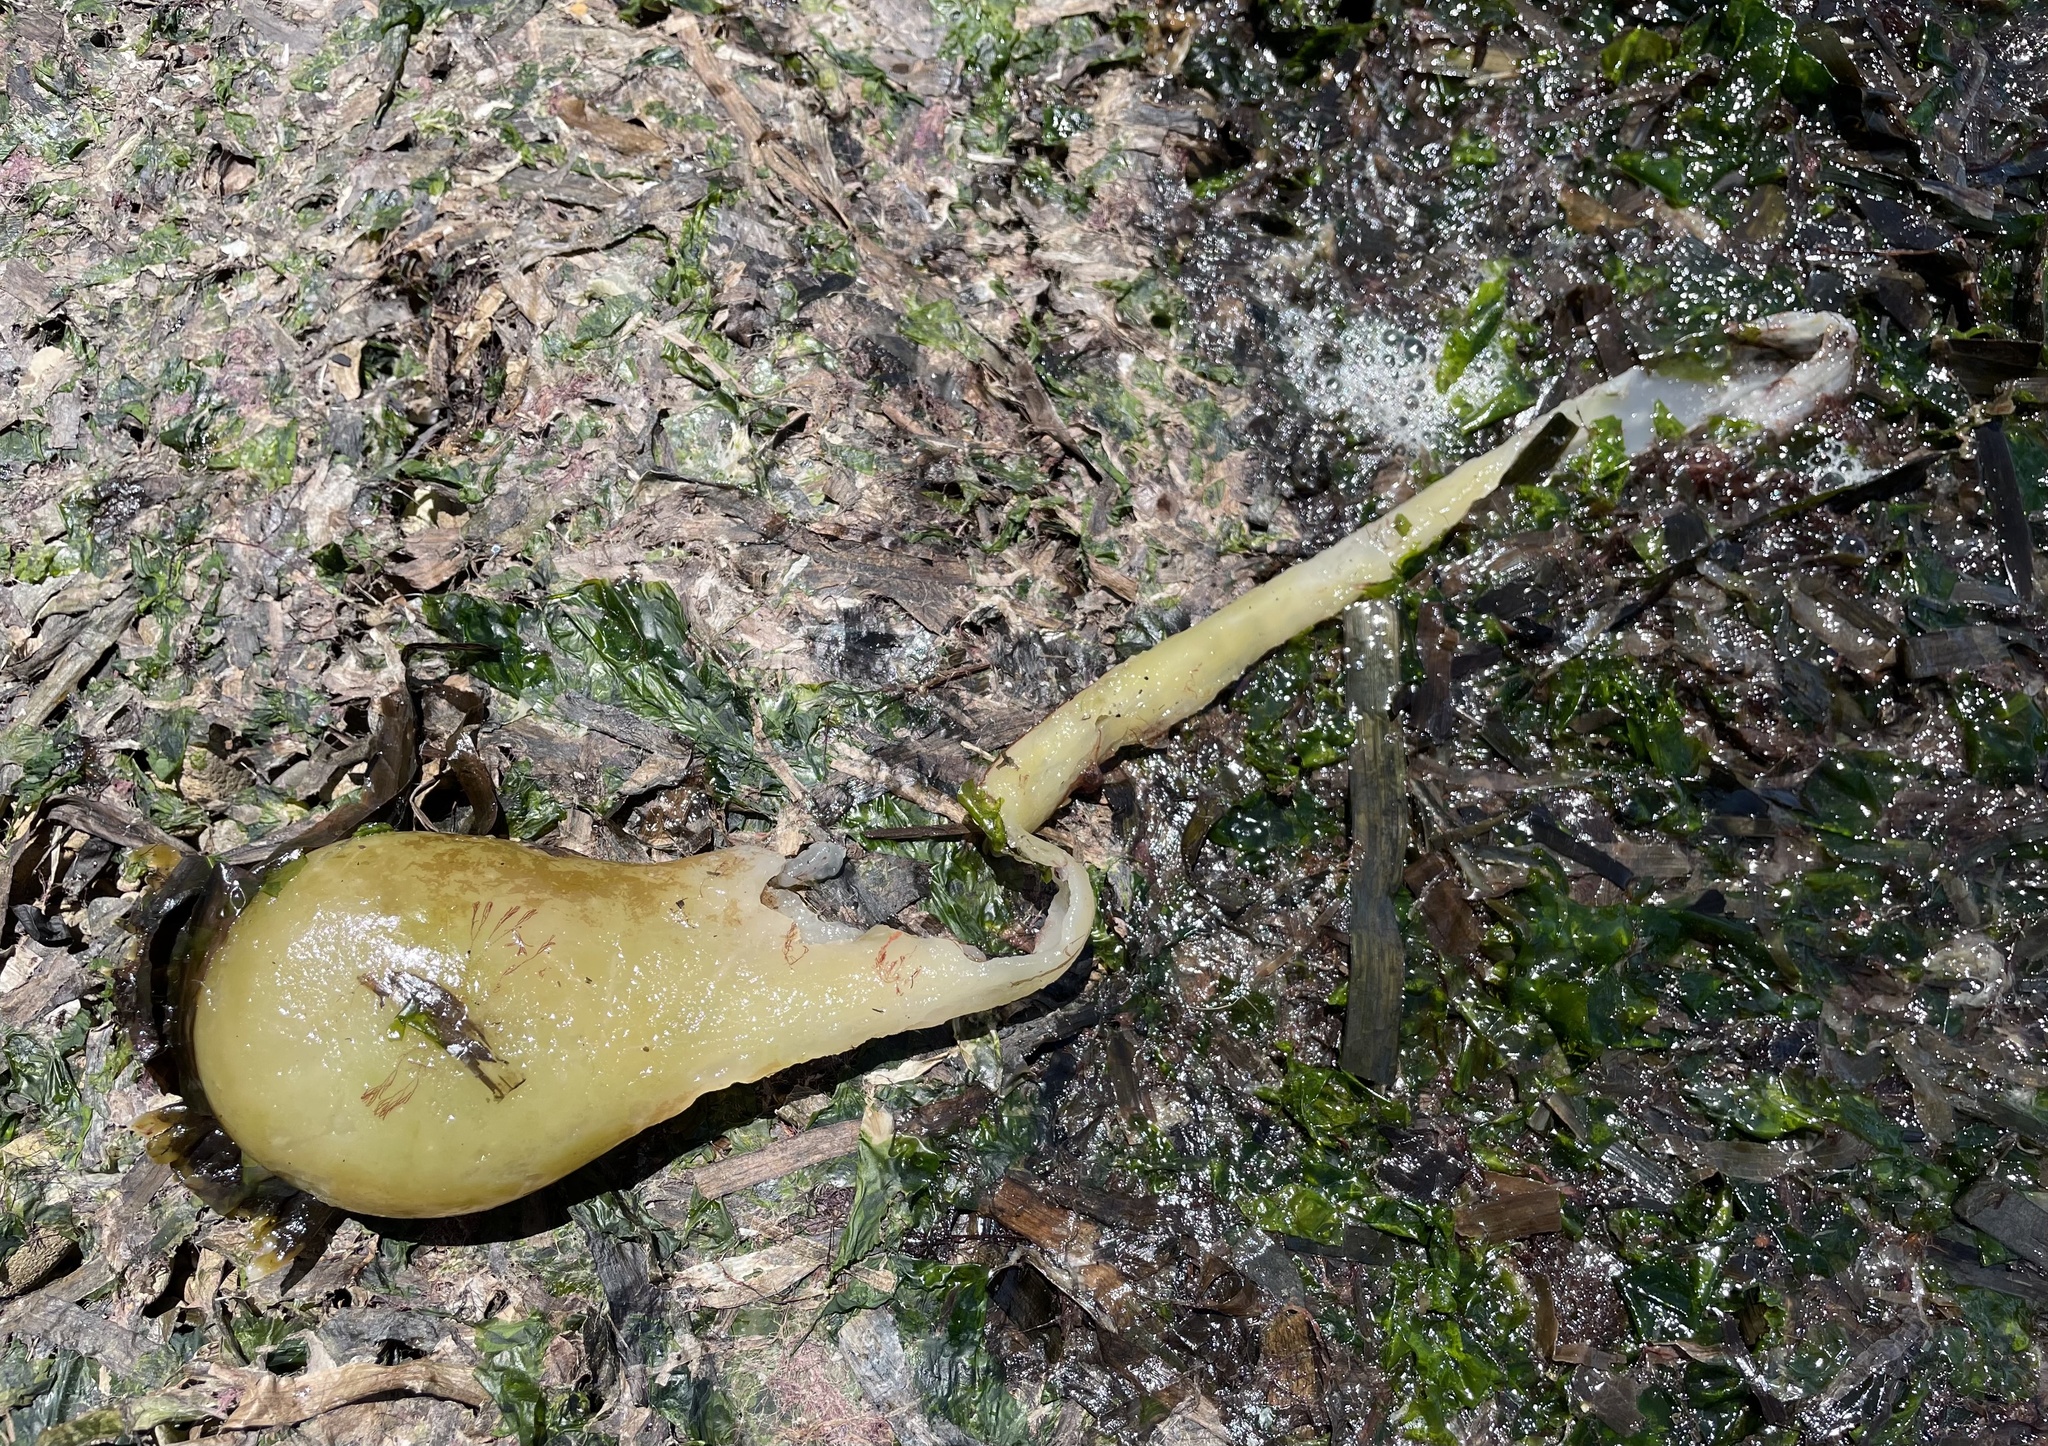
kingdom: Chromista
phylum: Ochrophyta
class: Phaeophyceae
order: Laminariales
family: Laminariaceae
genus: Nereocystis
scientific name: Nereocystis luetkeana
